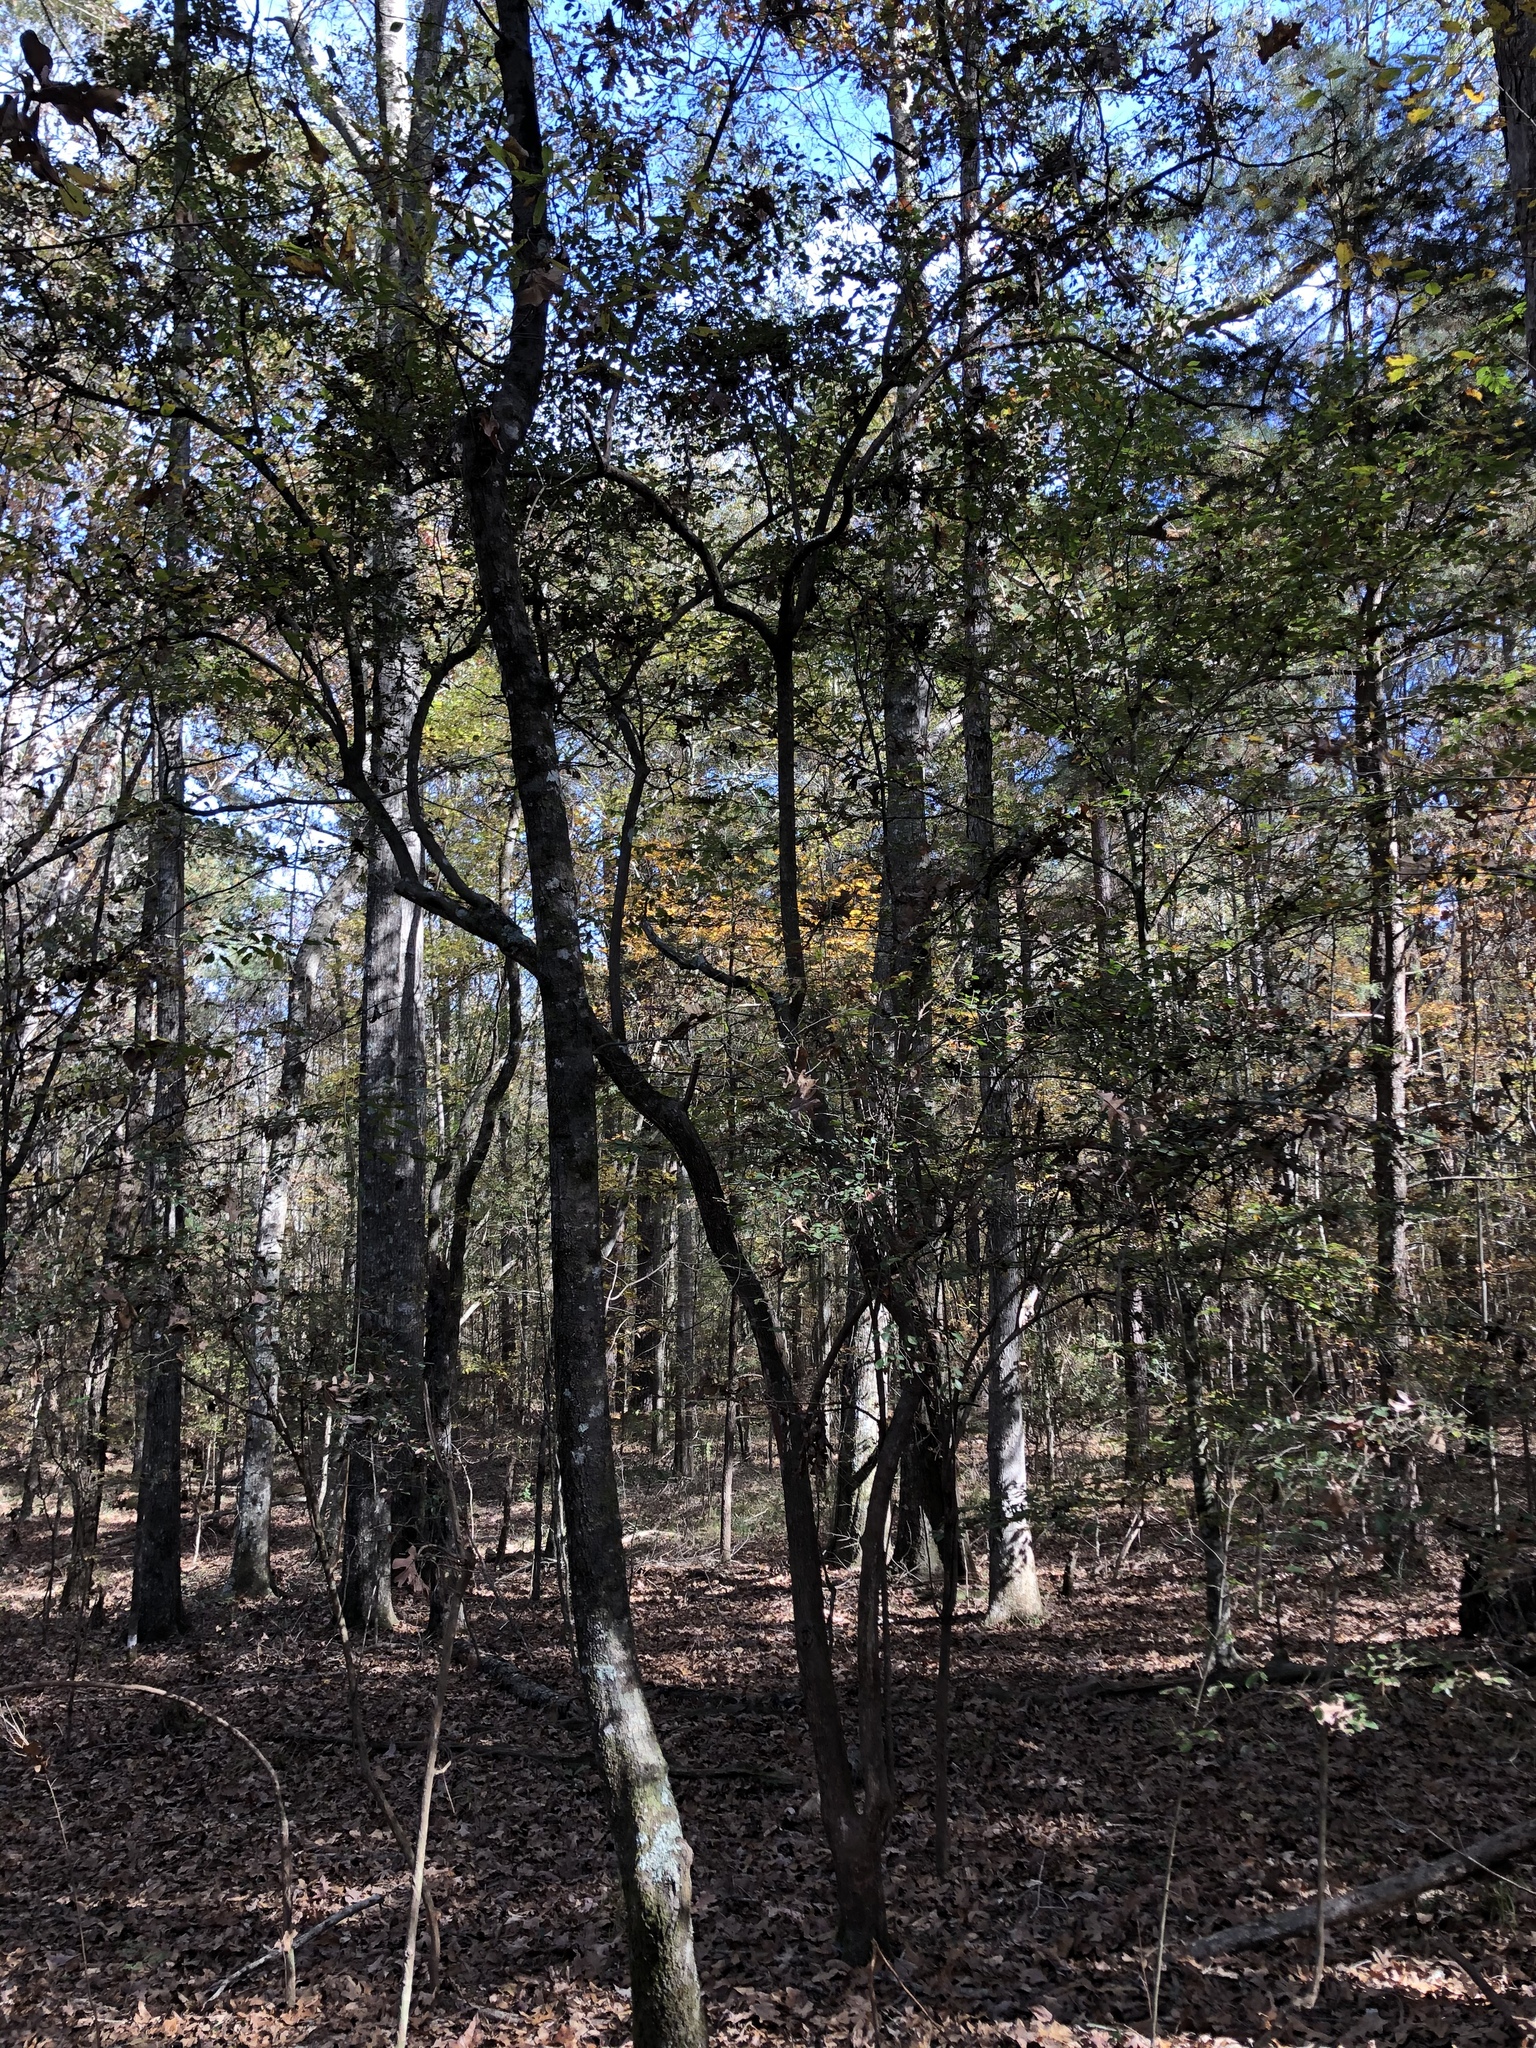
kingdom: Plantae
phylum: Tracheophyta
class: Magnoliopsida
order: Ericales
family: Ericaceae
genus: Vaccinium
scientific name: Vaccinium arboreum
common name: Farkleberry
